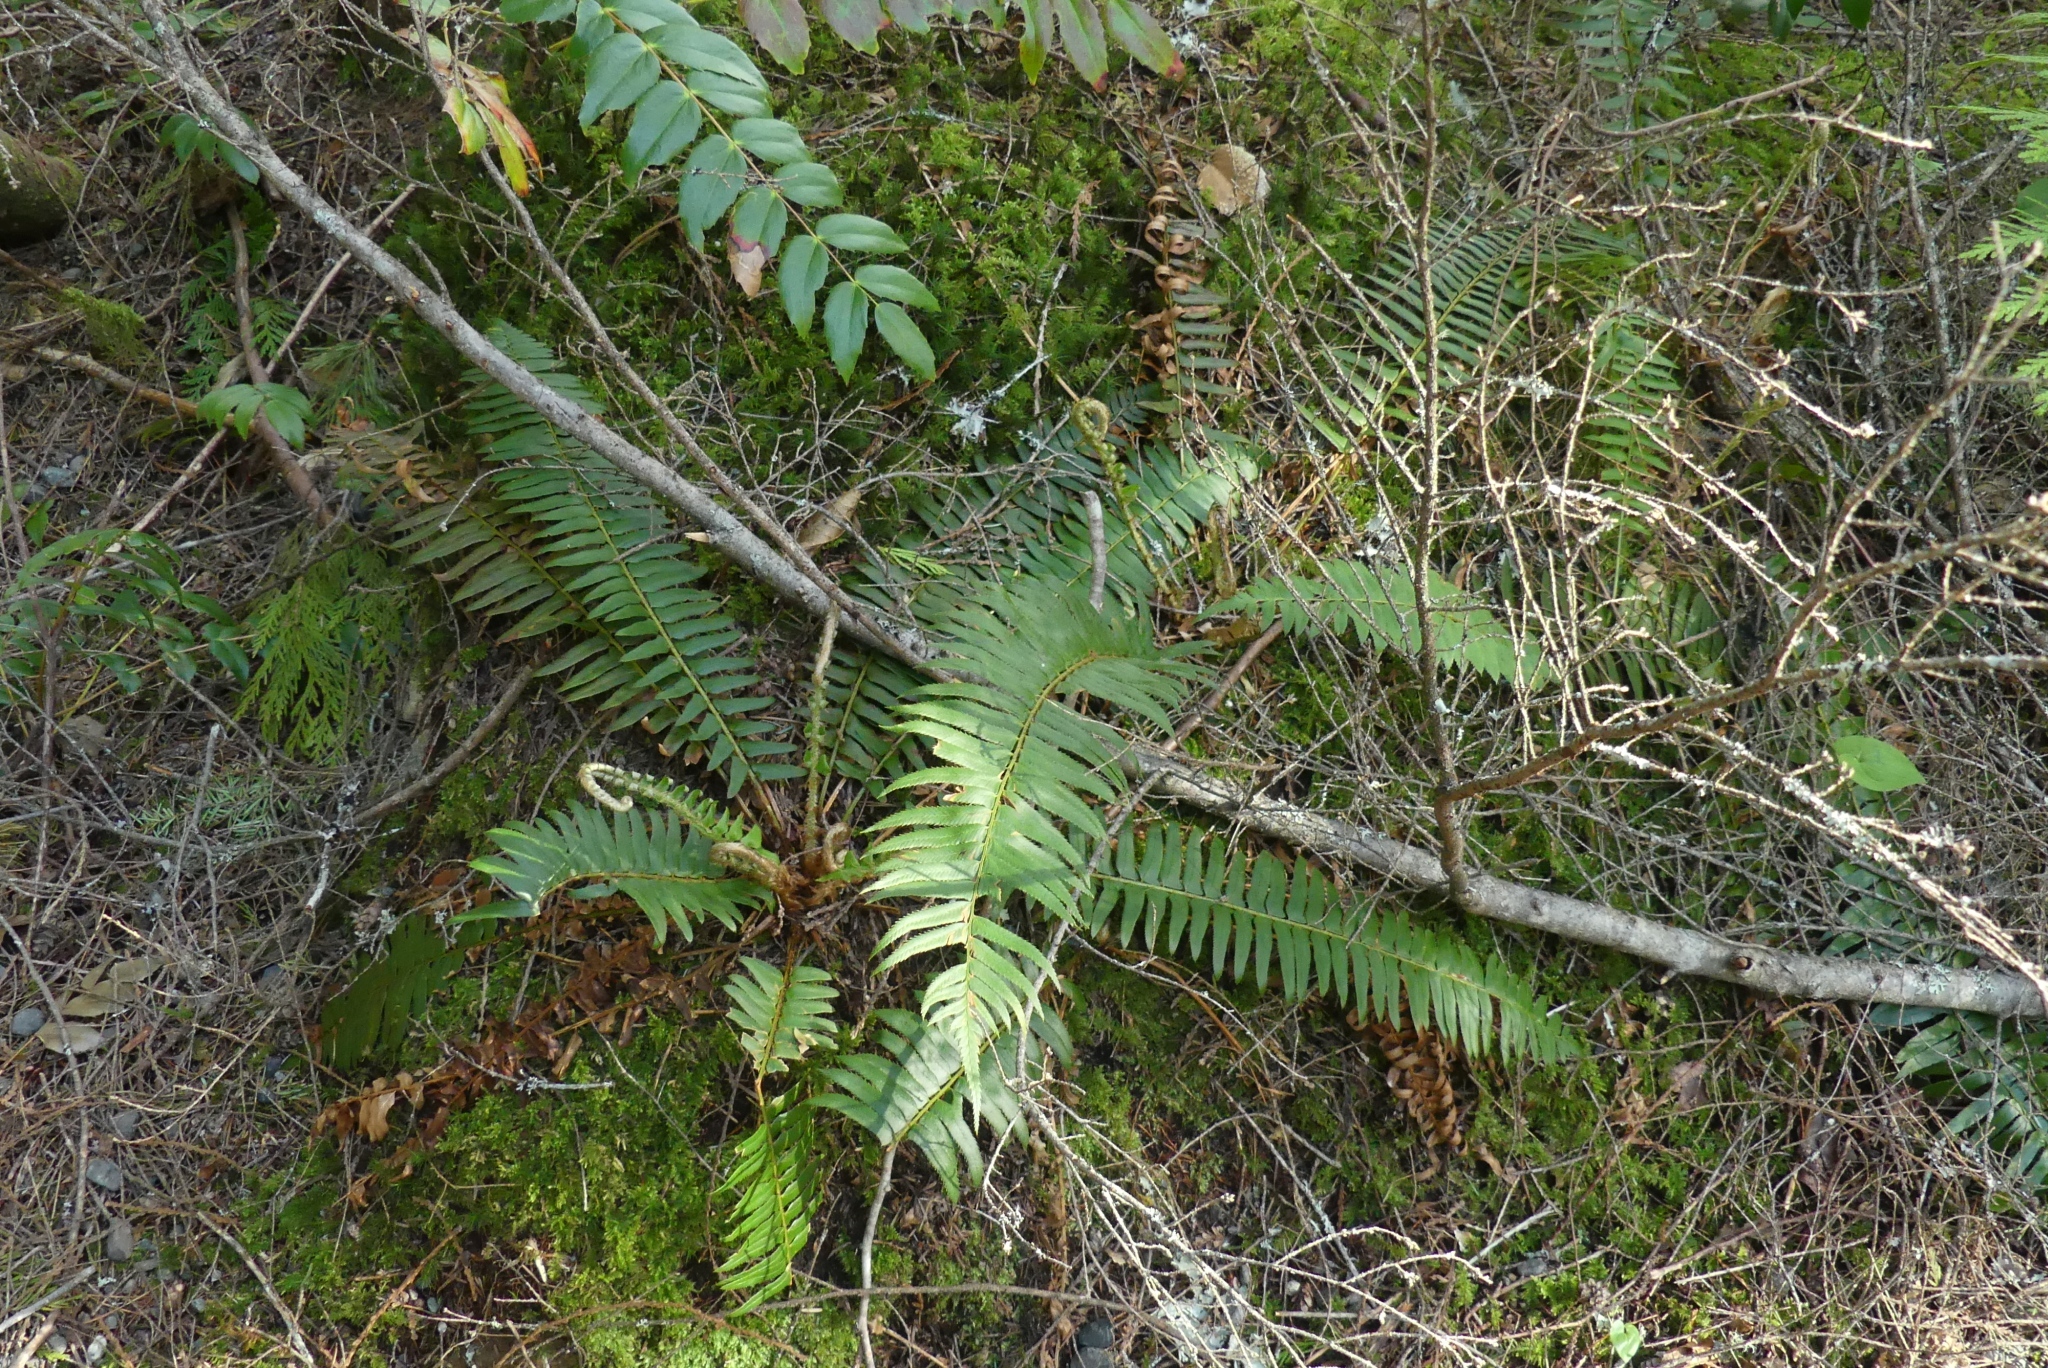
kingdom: Plantae
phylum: Tracheophyta
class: Polypodiopsida
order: Polypodiales
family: Dryopteridaceae
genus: Polystichum
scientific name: Polystichum munitum
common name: Western sword-fern
